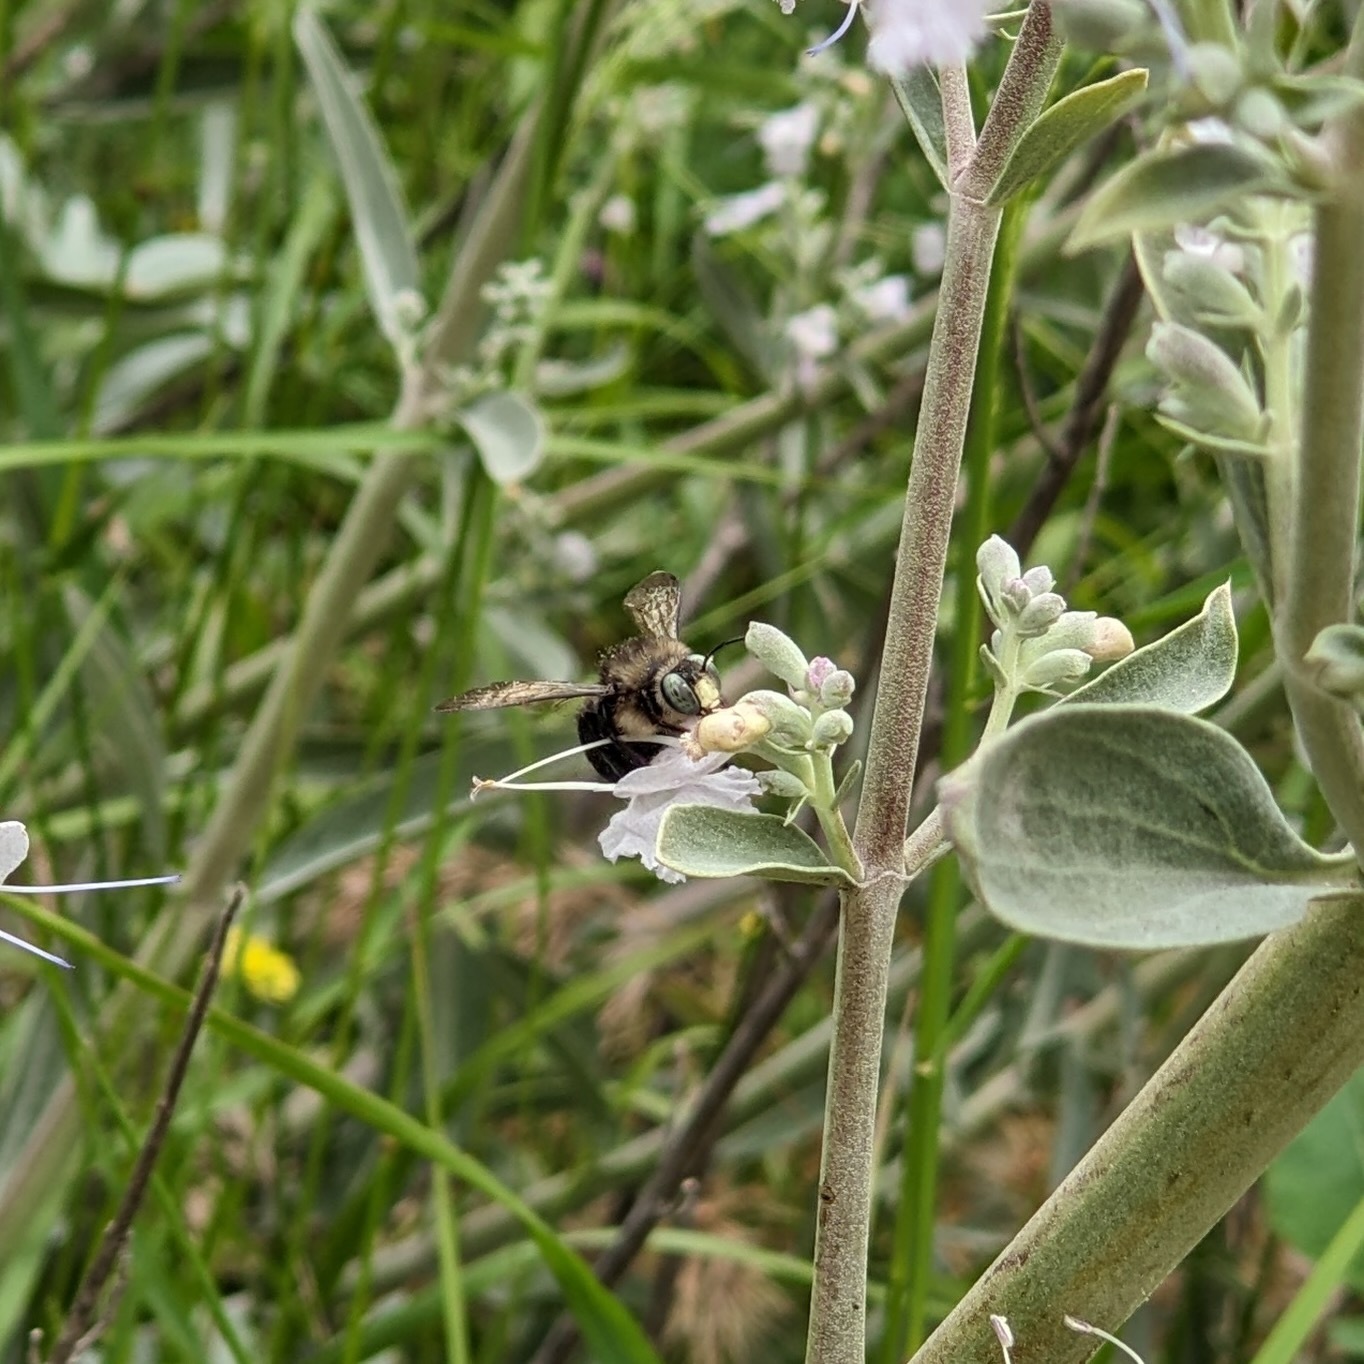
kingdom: Animalia
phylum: Arthropoda
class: Insecta
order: Hymenoptera
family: Apidae
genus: Xylocopa
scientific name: Xylocopa tabaniformis
